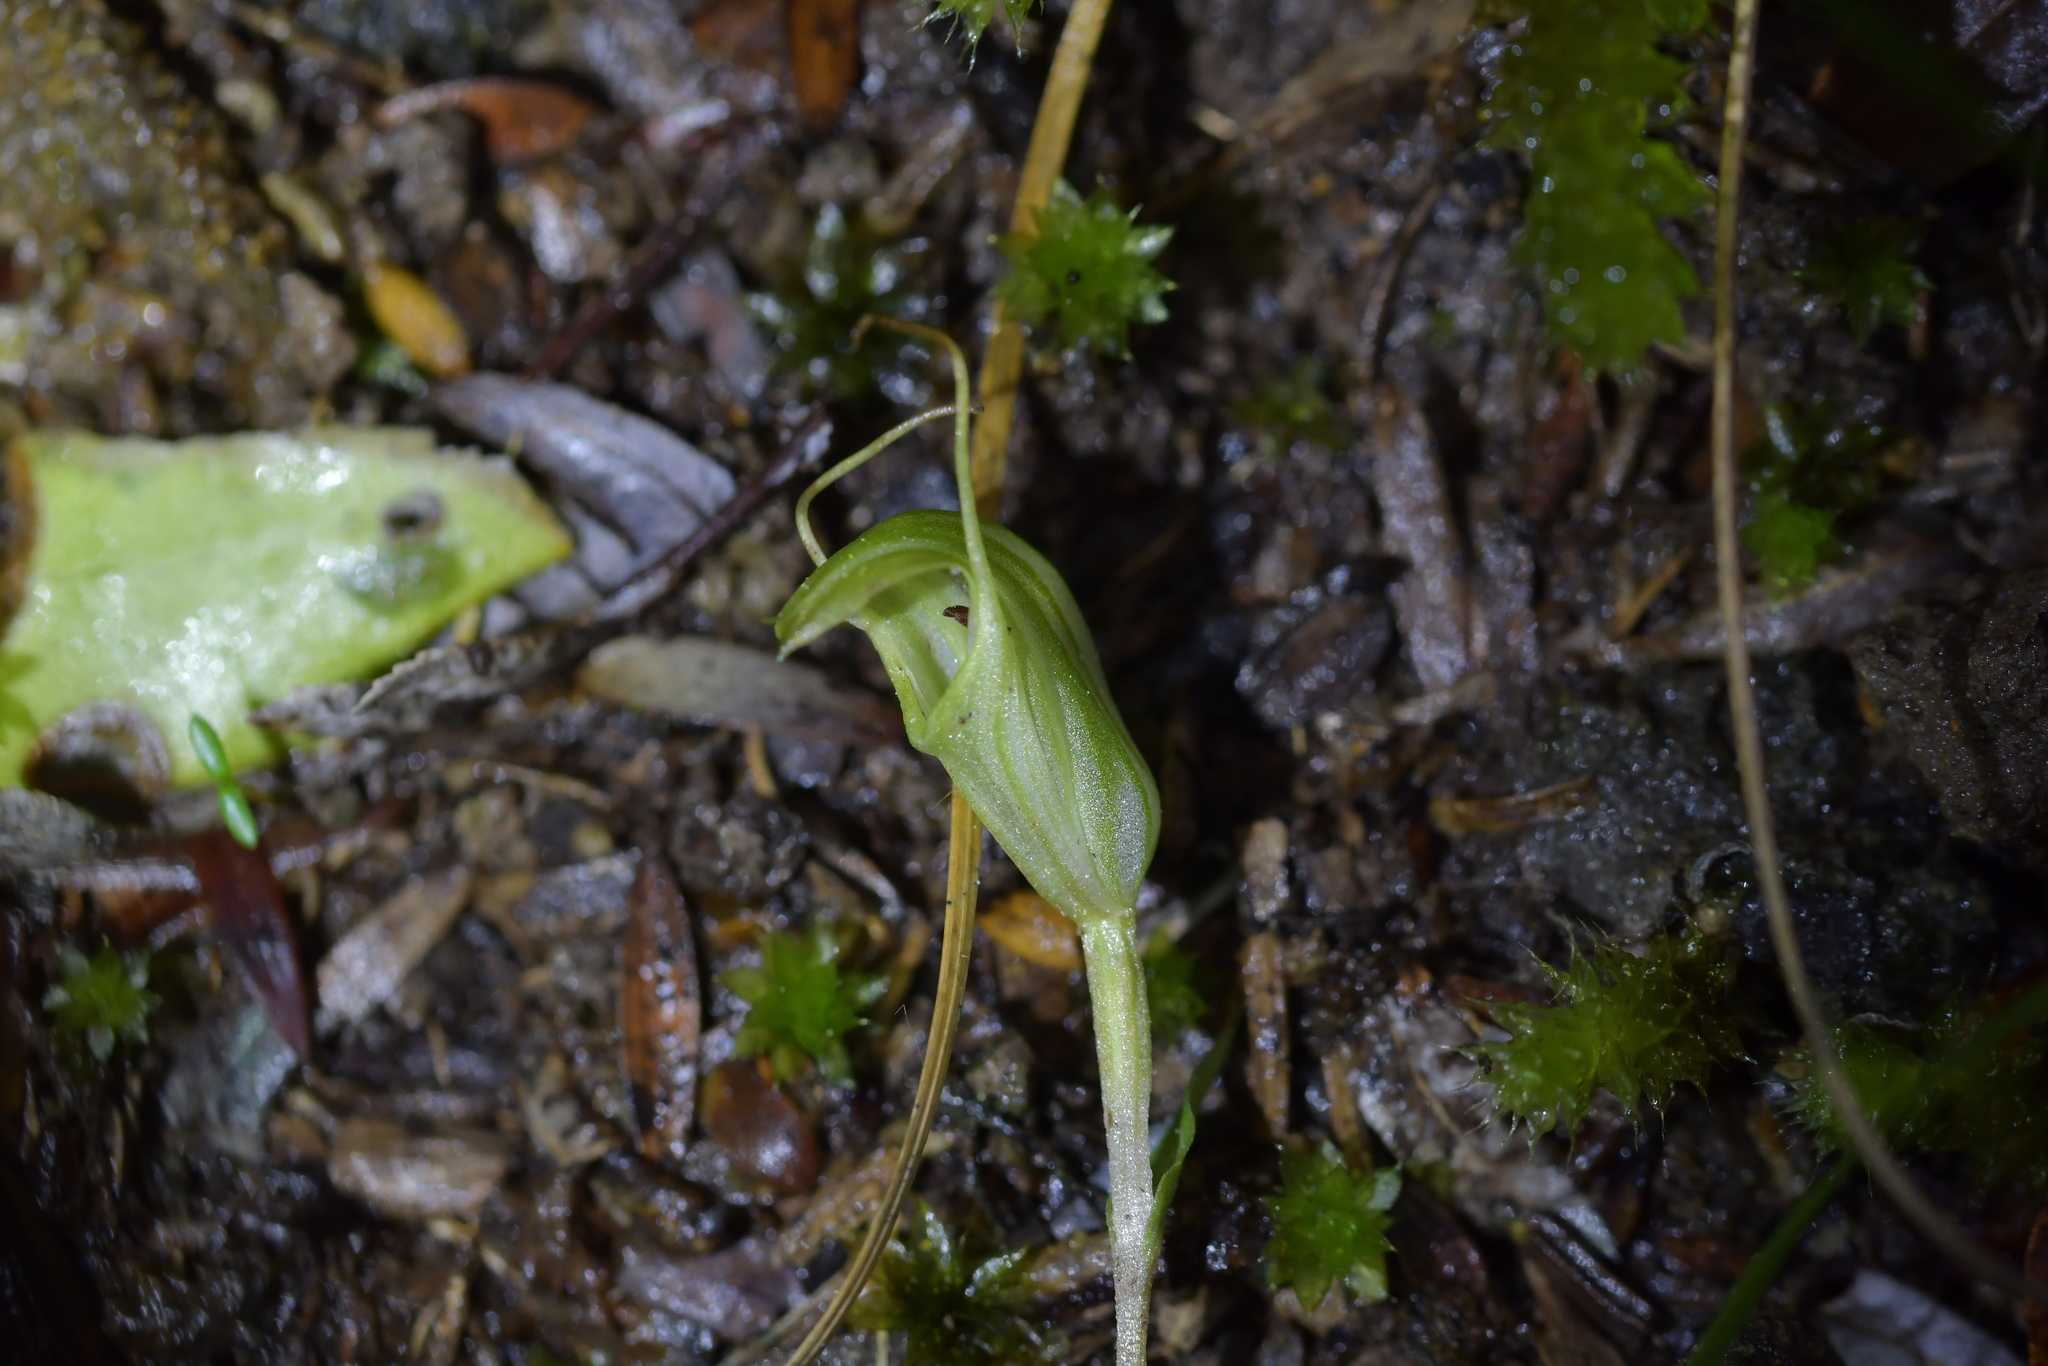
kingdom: Plantae
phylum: Tracheophyta
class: Liliopsida
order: Asparagales
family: Orchidaceae
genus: Pterostylis
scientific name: Pterostylis trullifolia
